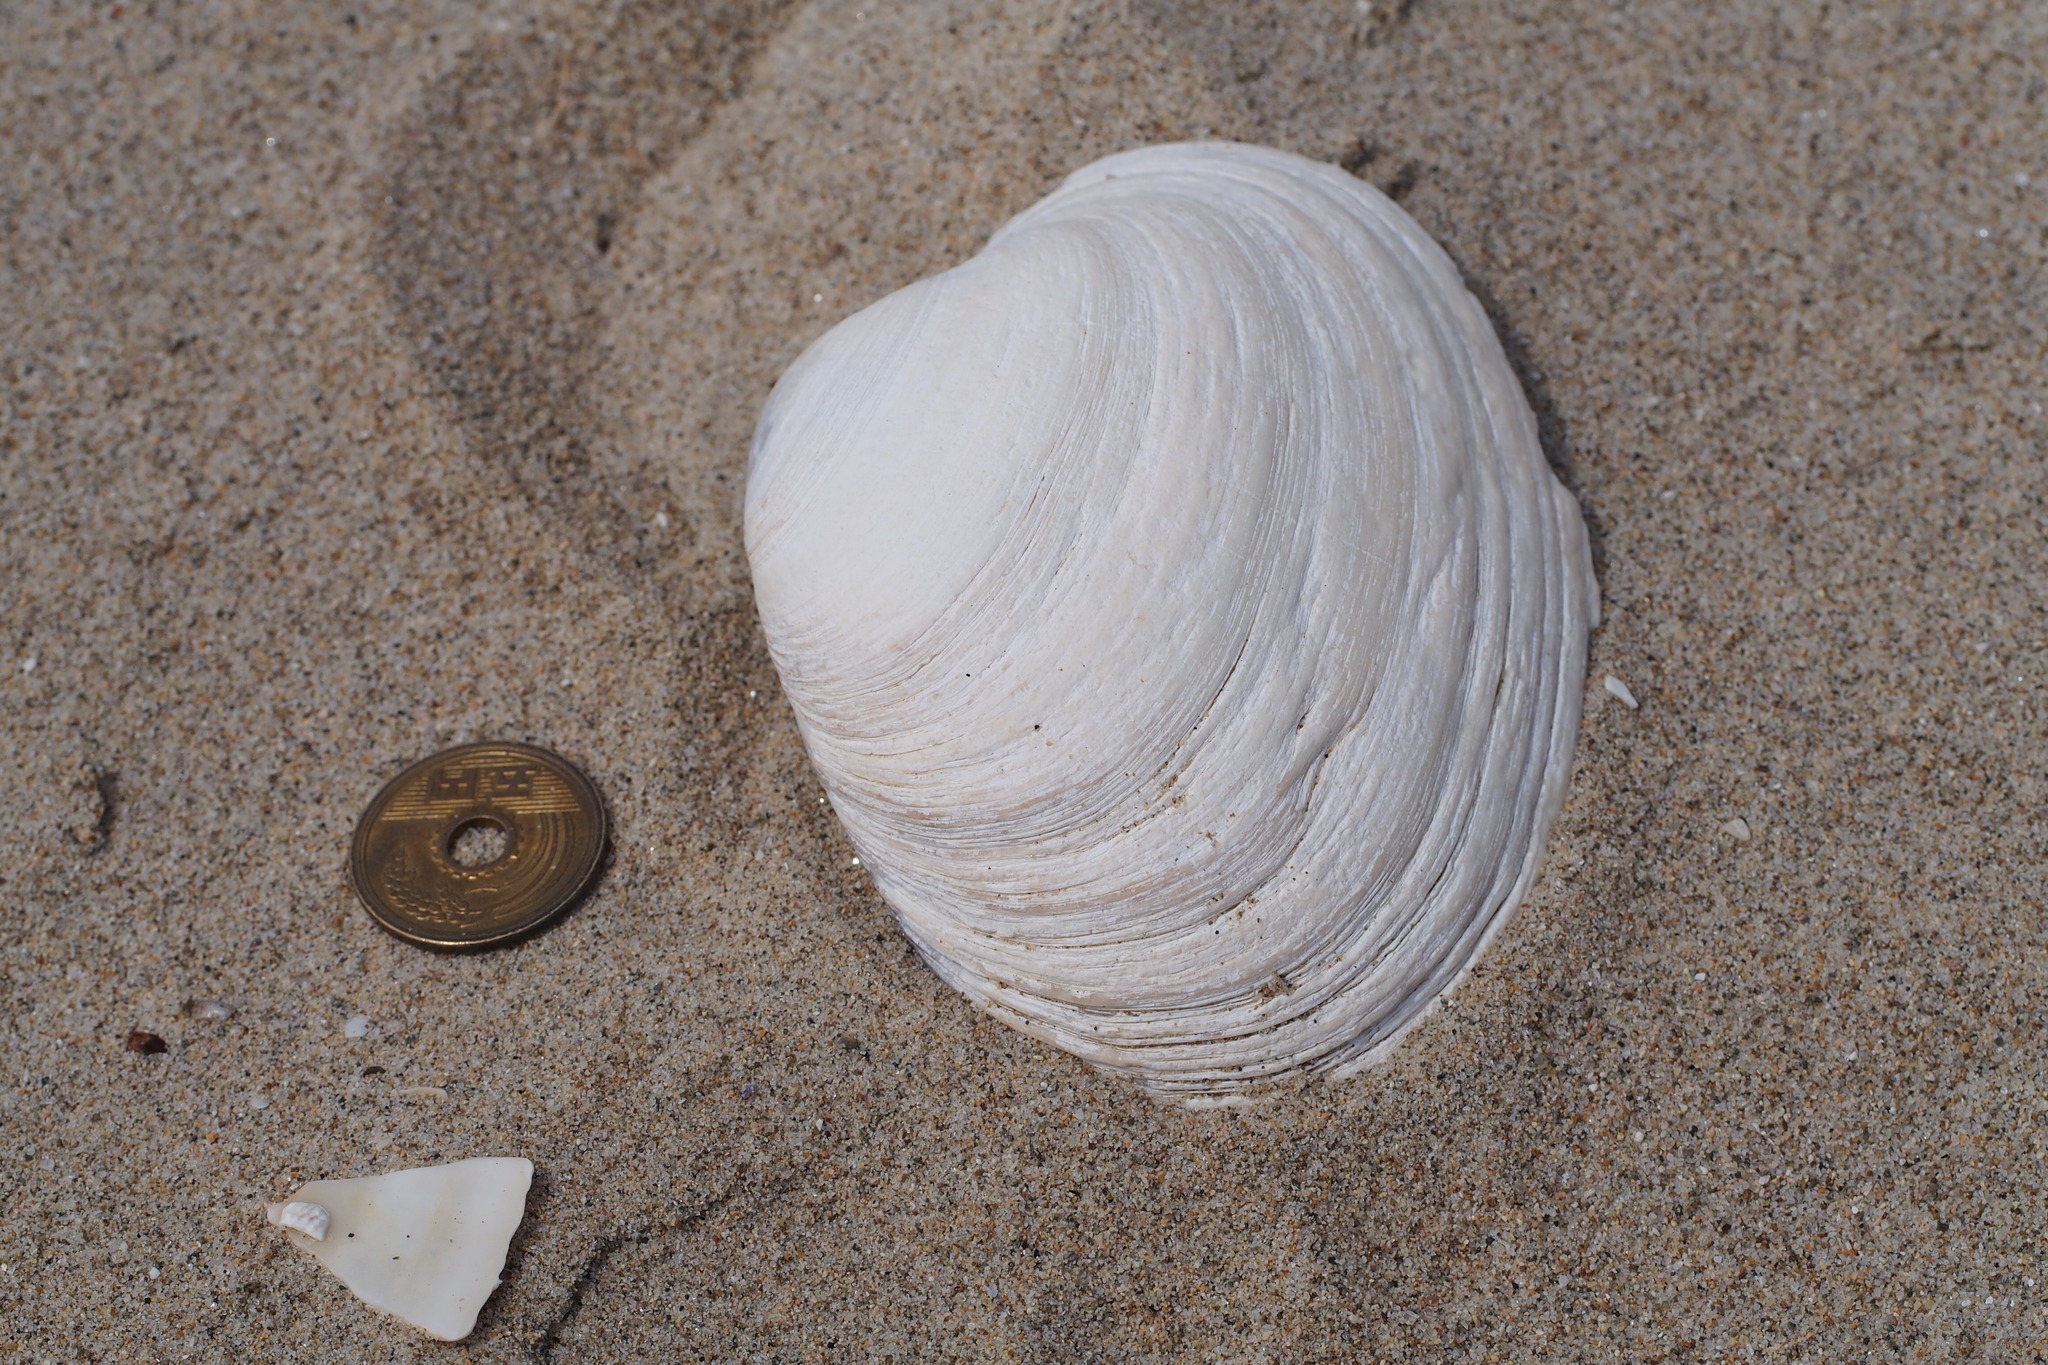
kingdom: Animalia
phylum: Mollusca
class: Bivalvia
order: Venerida
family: Veneridae
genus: Saxidomus
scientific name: Saxidomus purpurata
